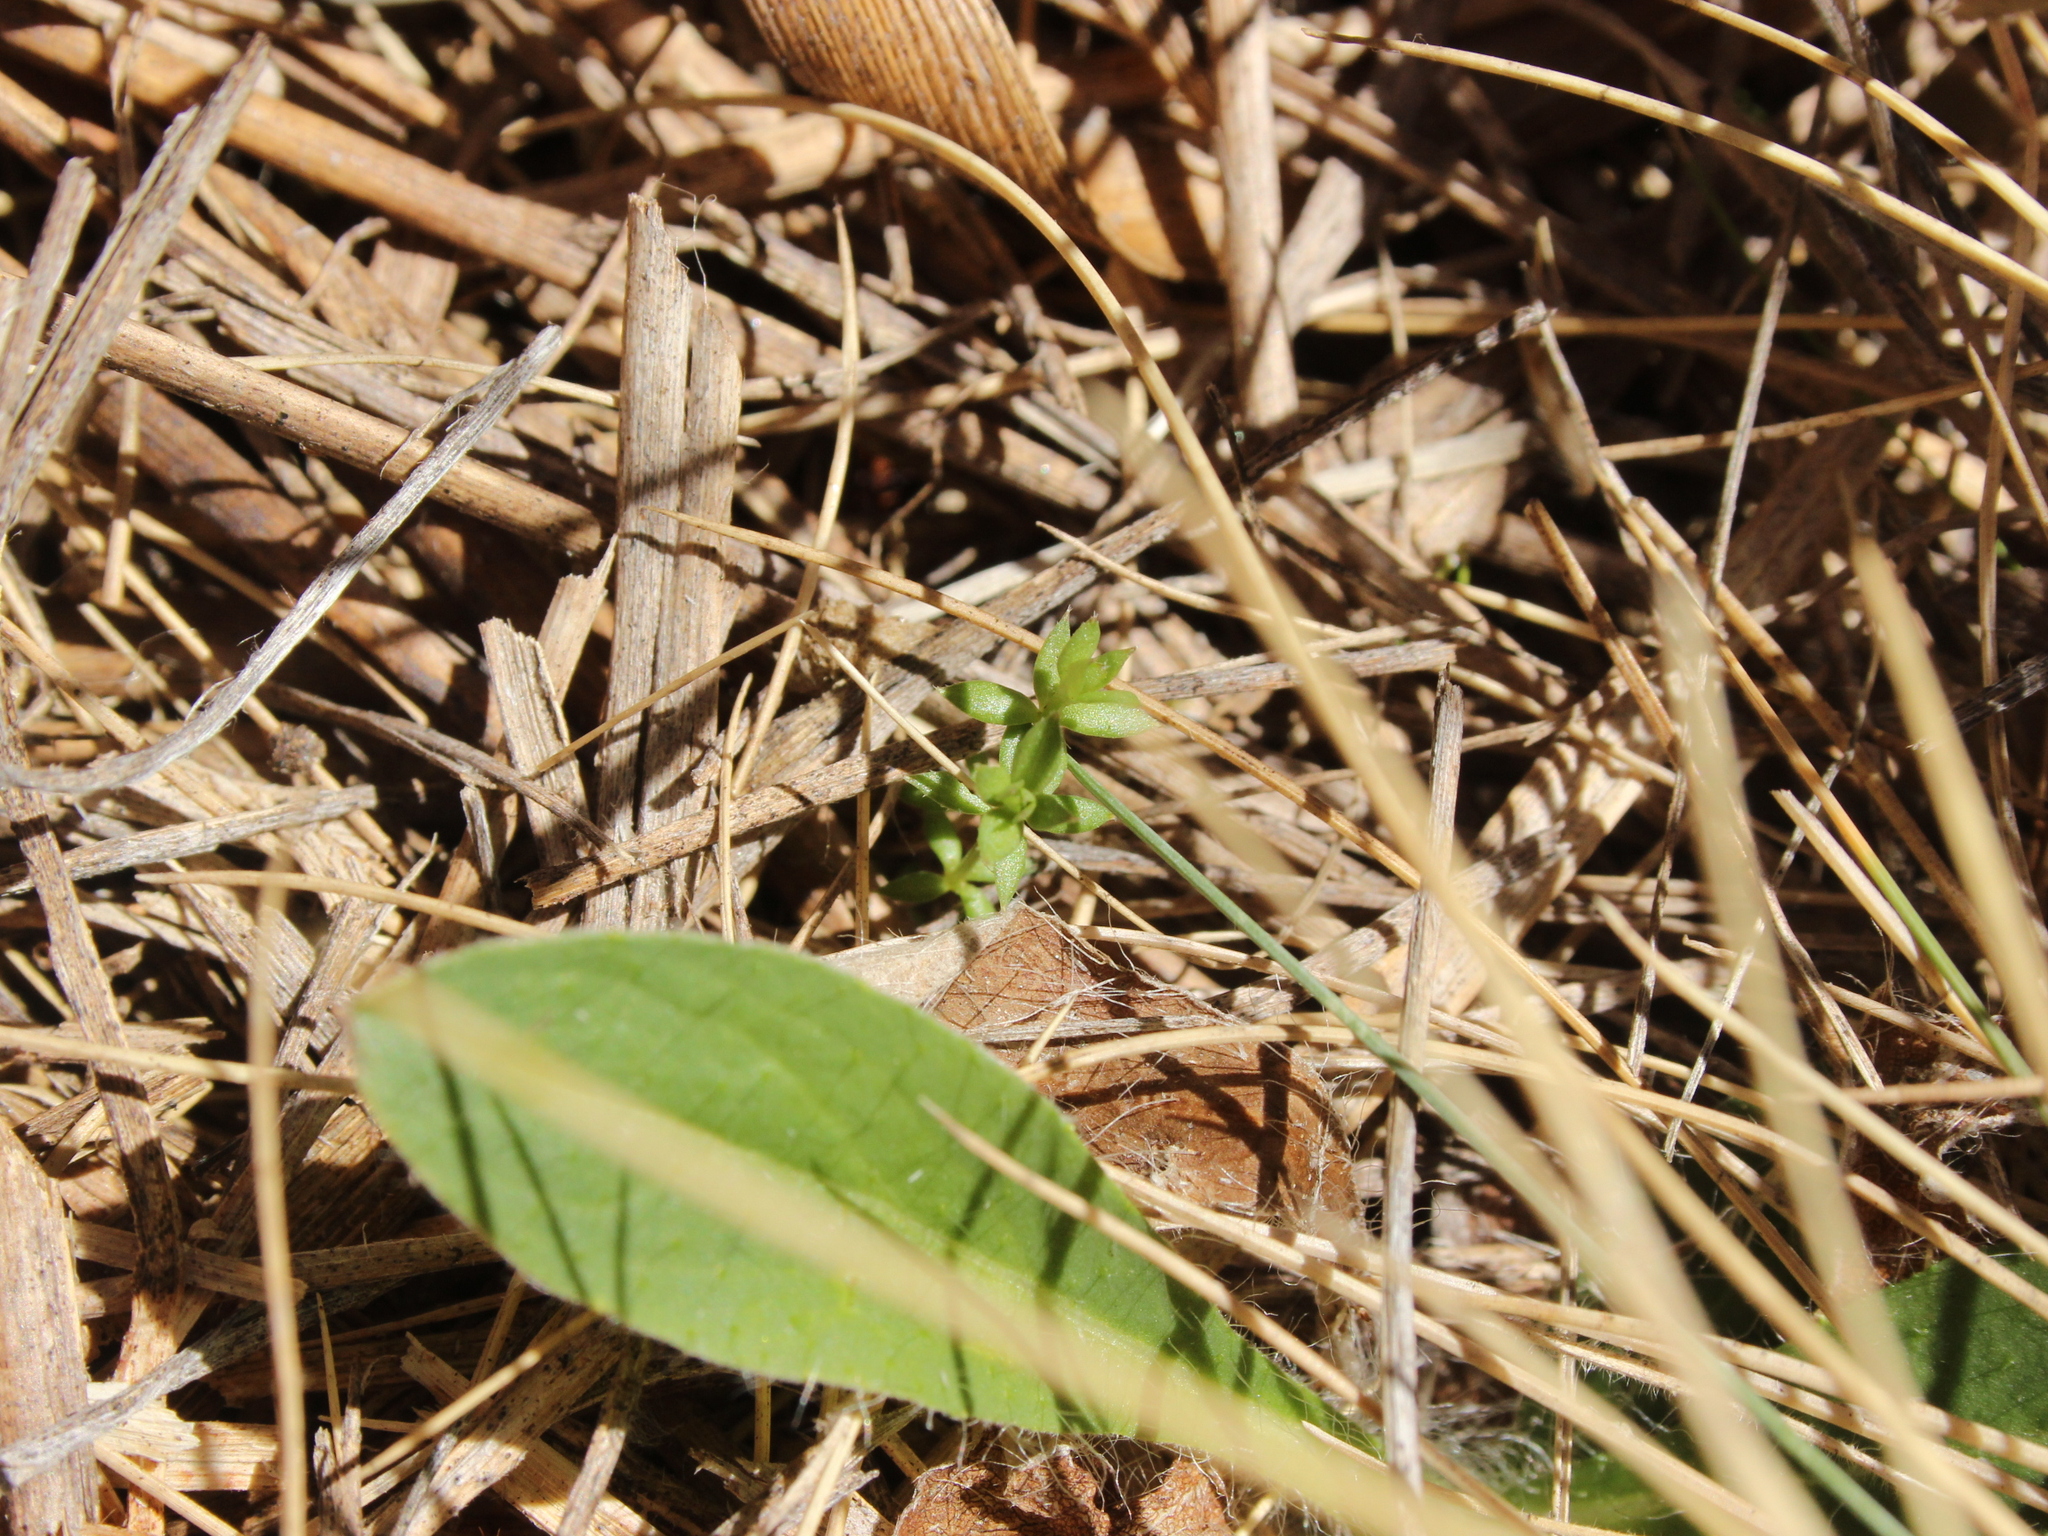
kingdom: Plantae
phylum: Tracheophyta
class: Magnoliopsida
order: Gentianales
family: Rubiaceae
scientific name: Rubiaceae
